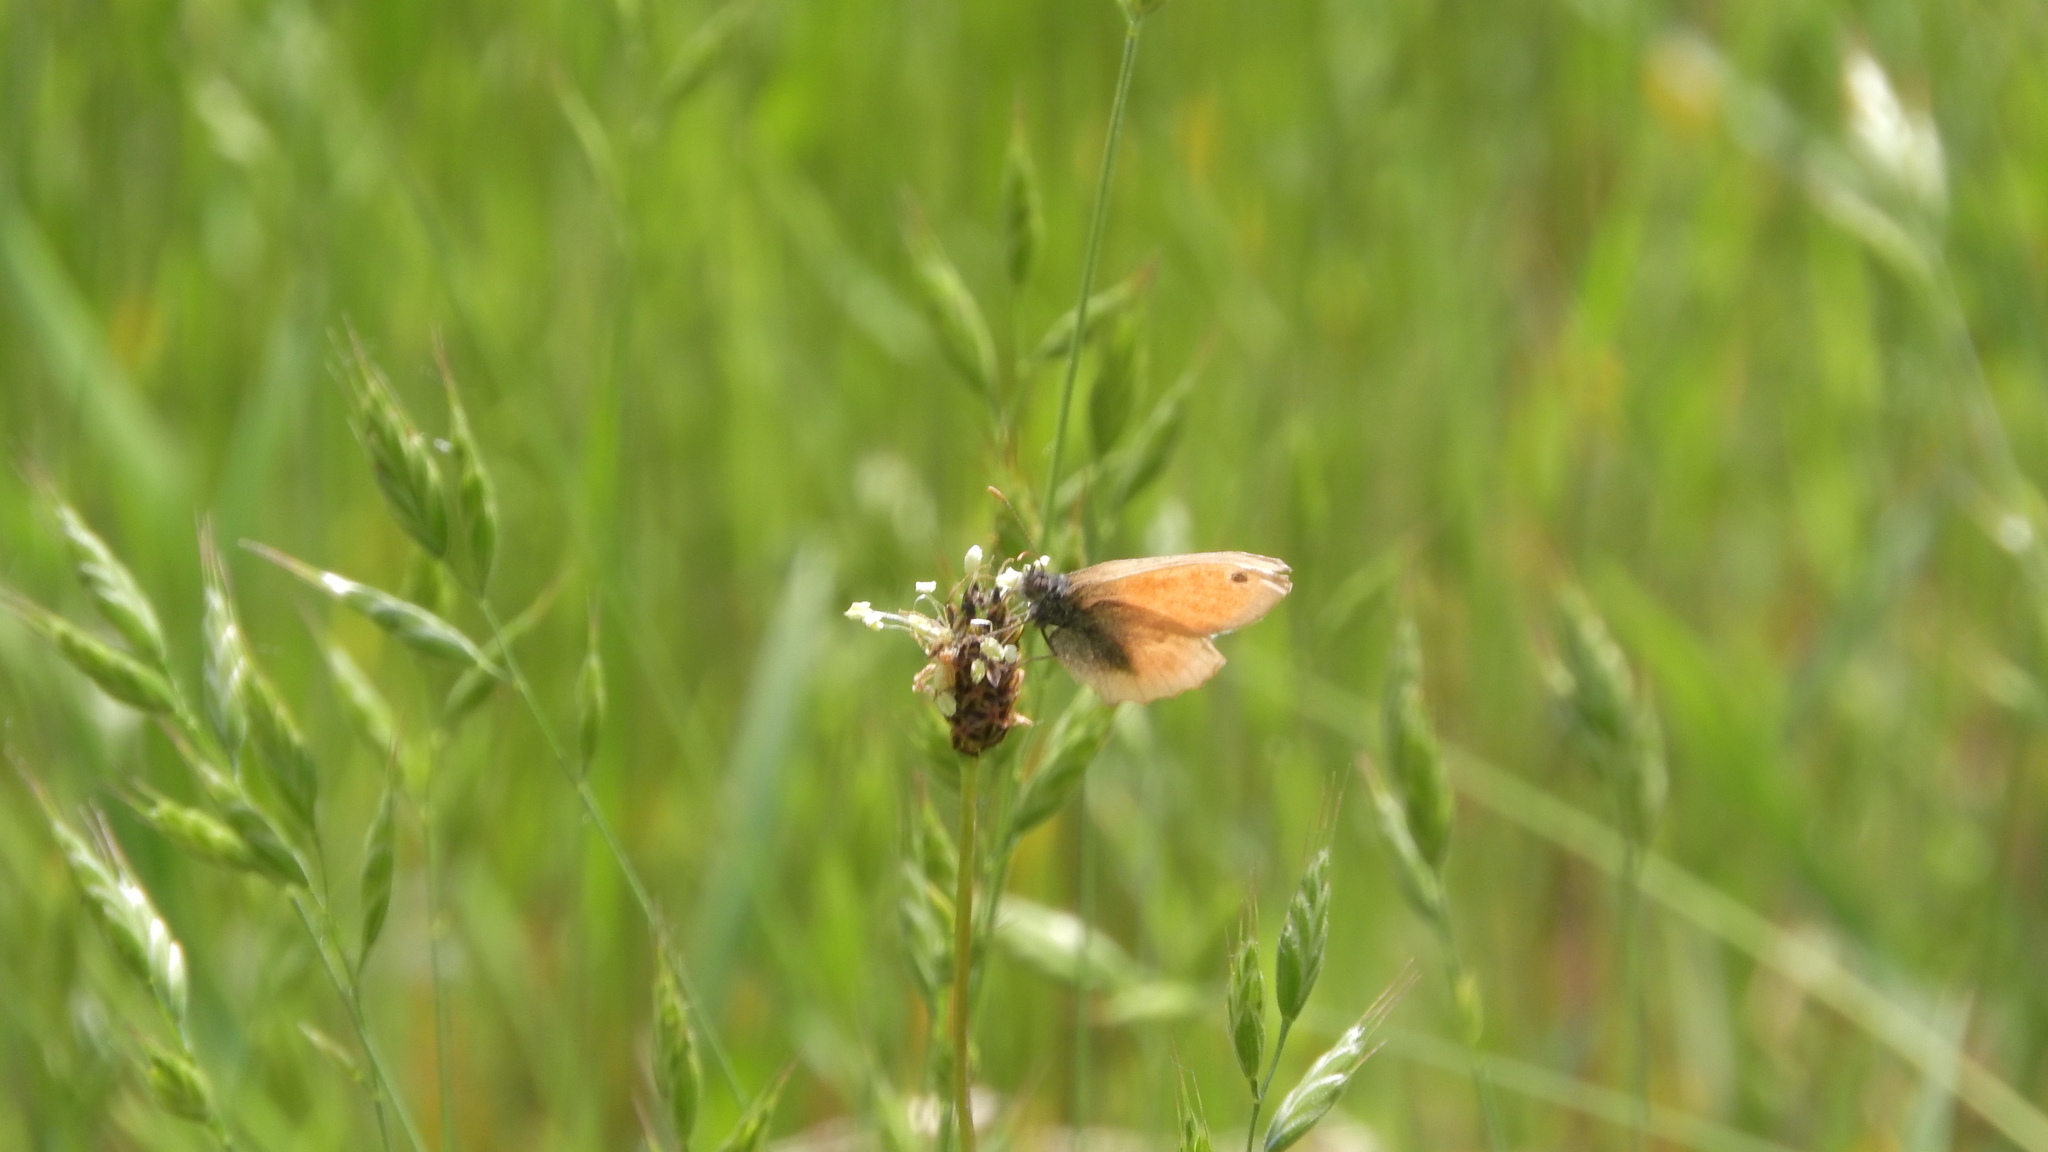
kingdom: Animalia
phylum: Arthropoda
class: Insecta
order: Lepidoptera
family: Nymphalidae
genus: Coenonympha
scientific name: Coenonympha pamphilus
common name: Small heath
